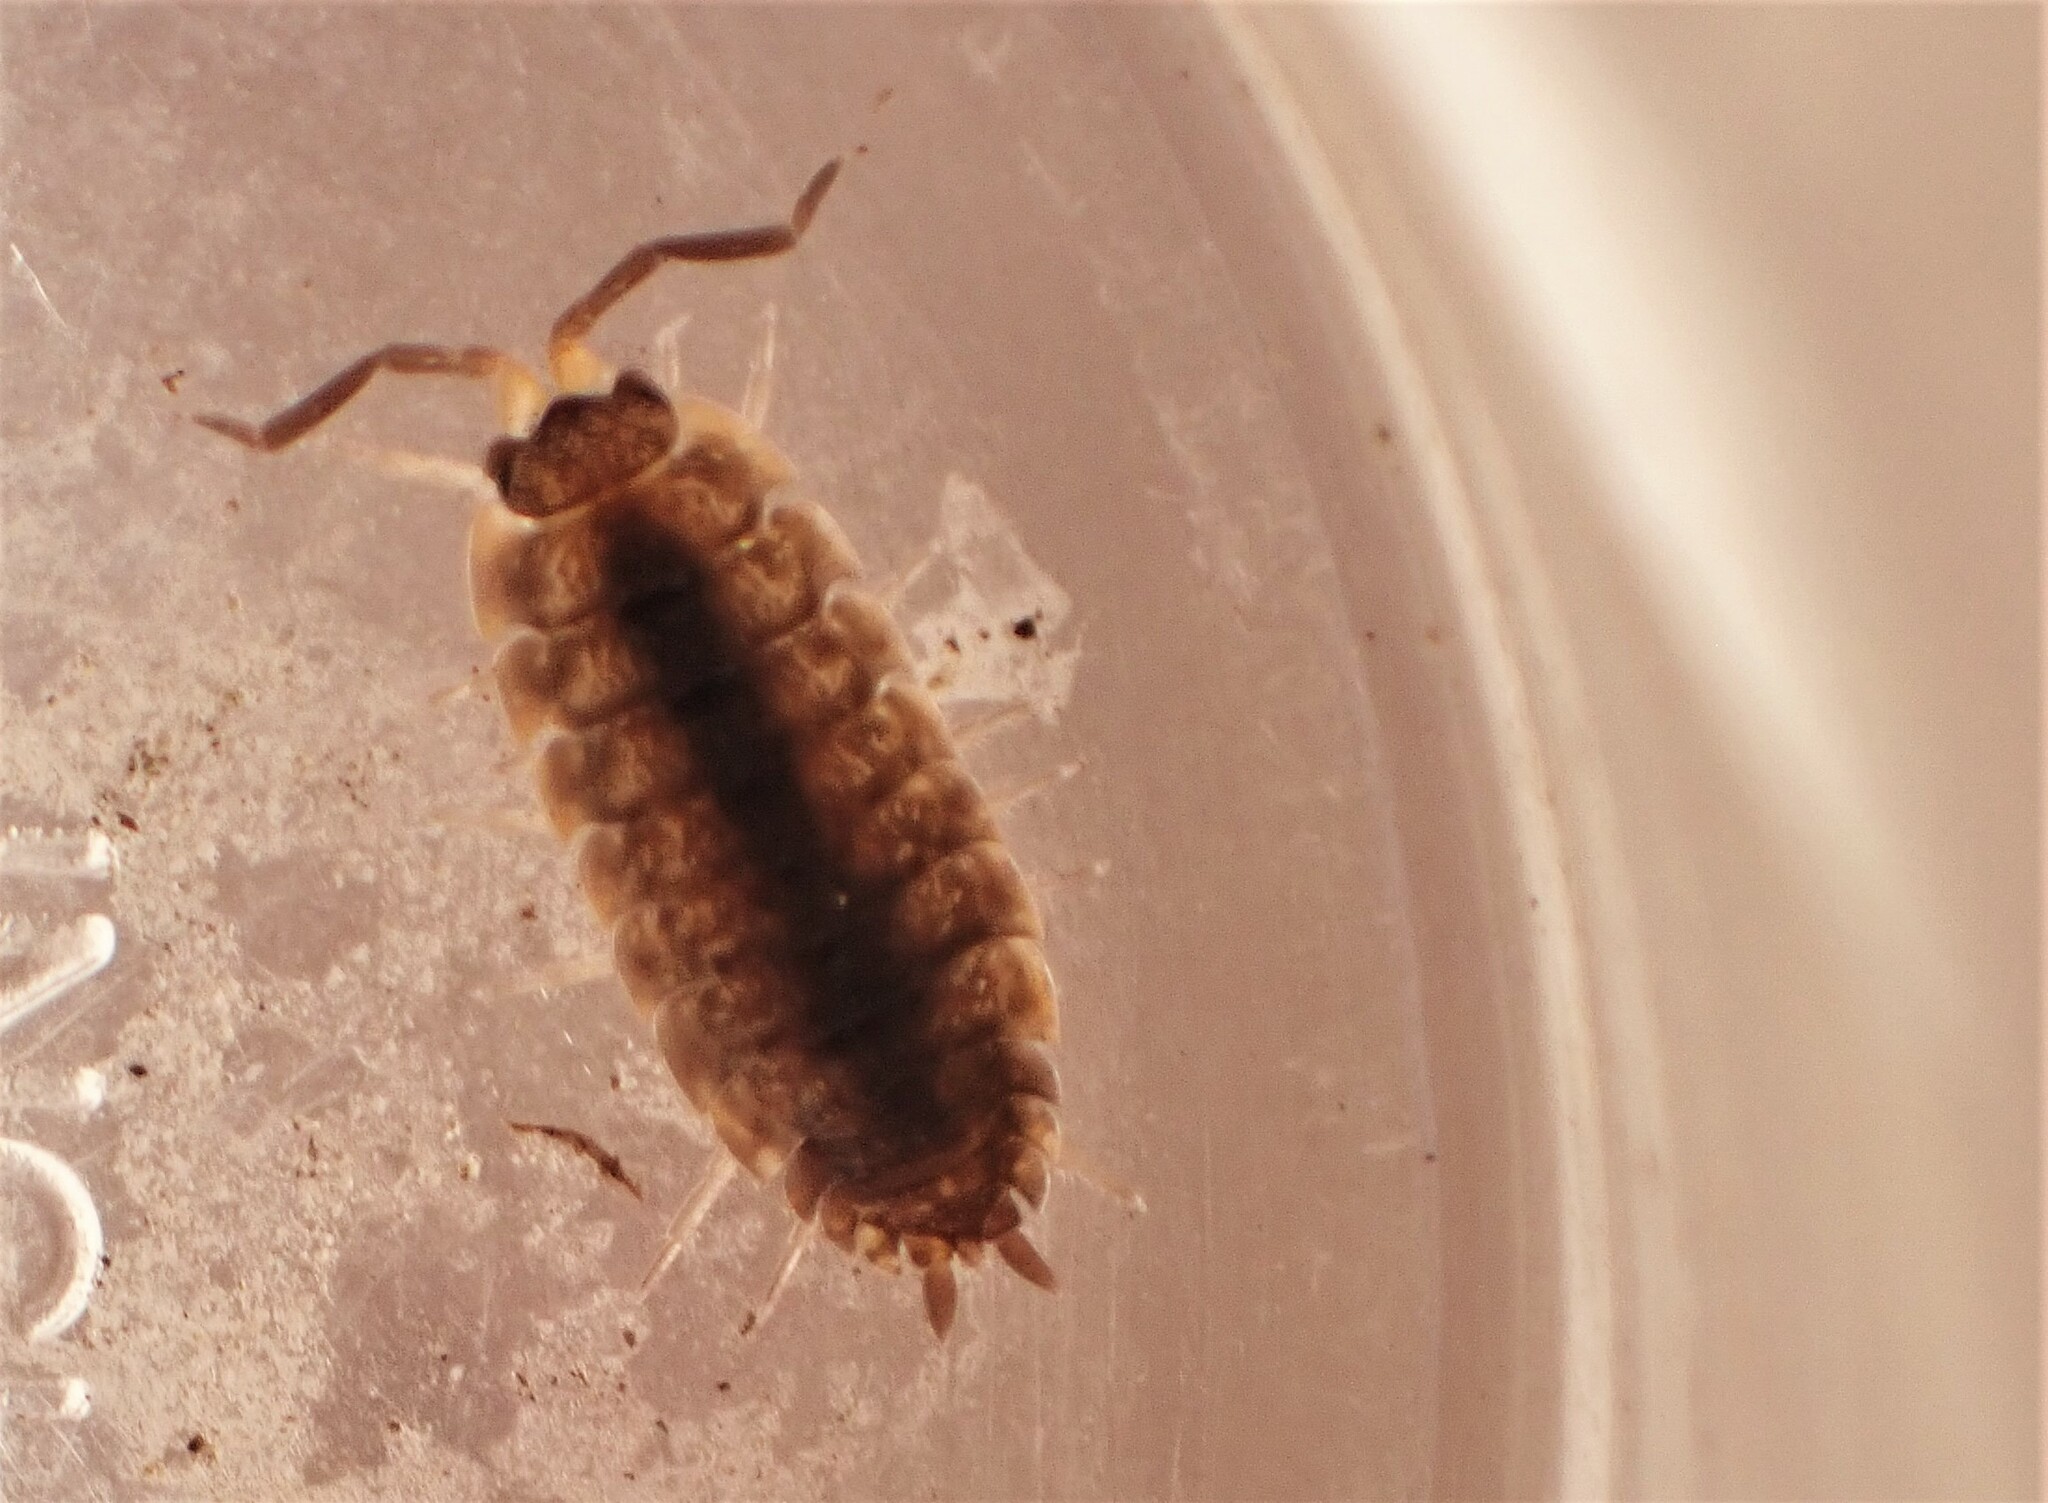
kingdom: Animalia
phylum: Arthropoda
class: Malacostraca
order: Isopoda
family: Porcellionidae
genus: Porcellio
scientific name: Porcellio scaber
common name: Common rough woodlouse
